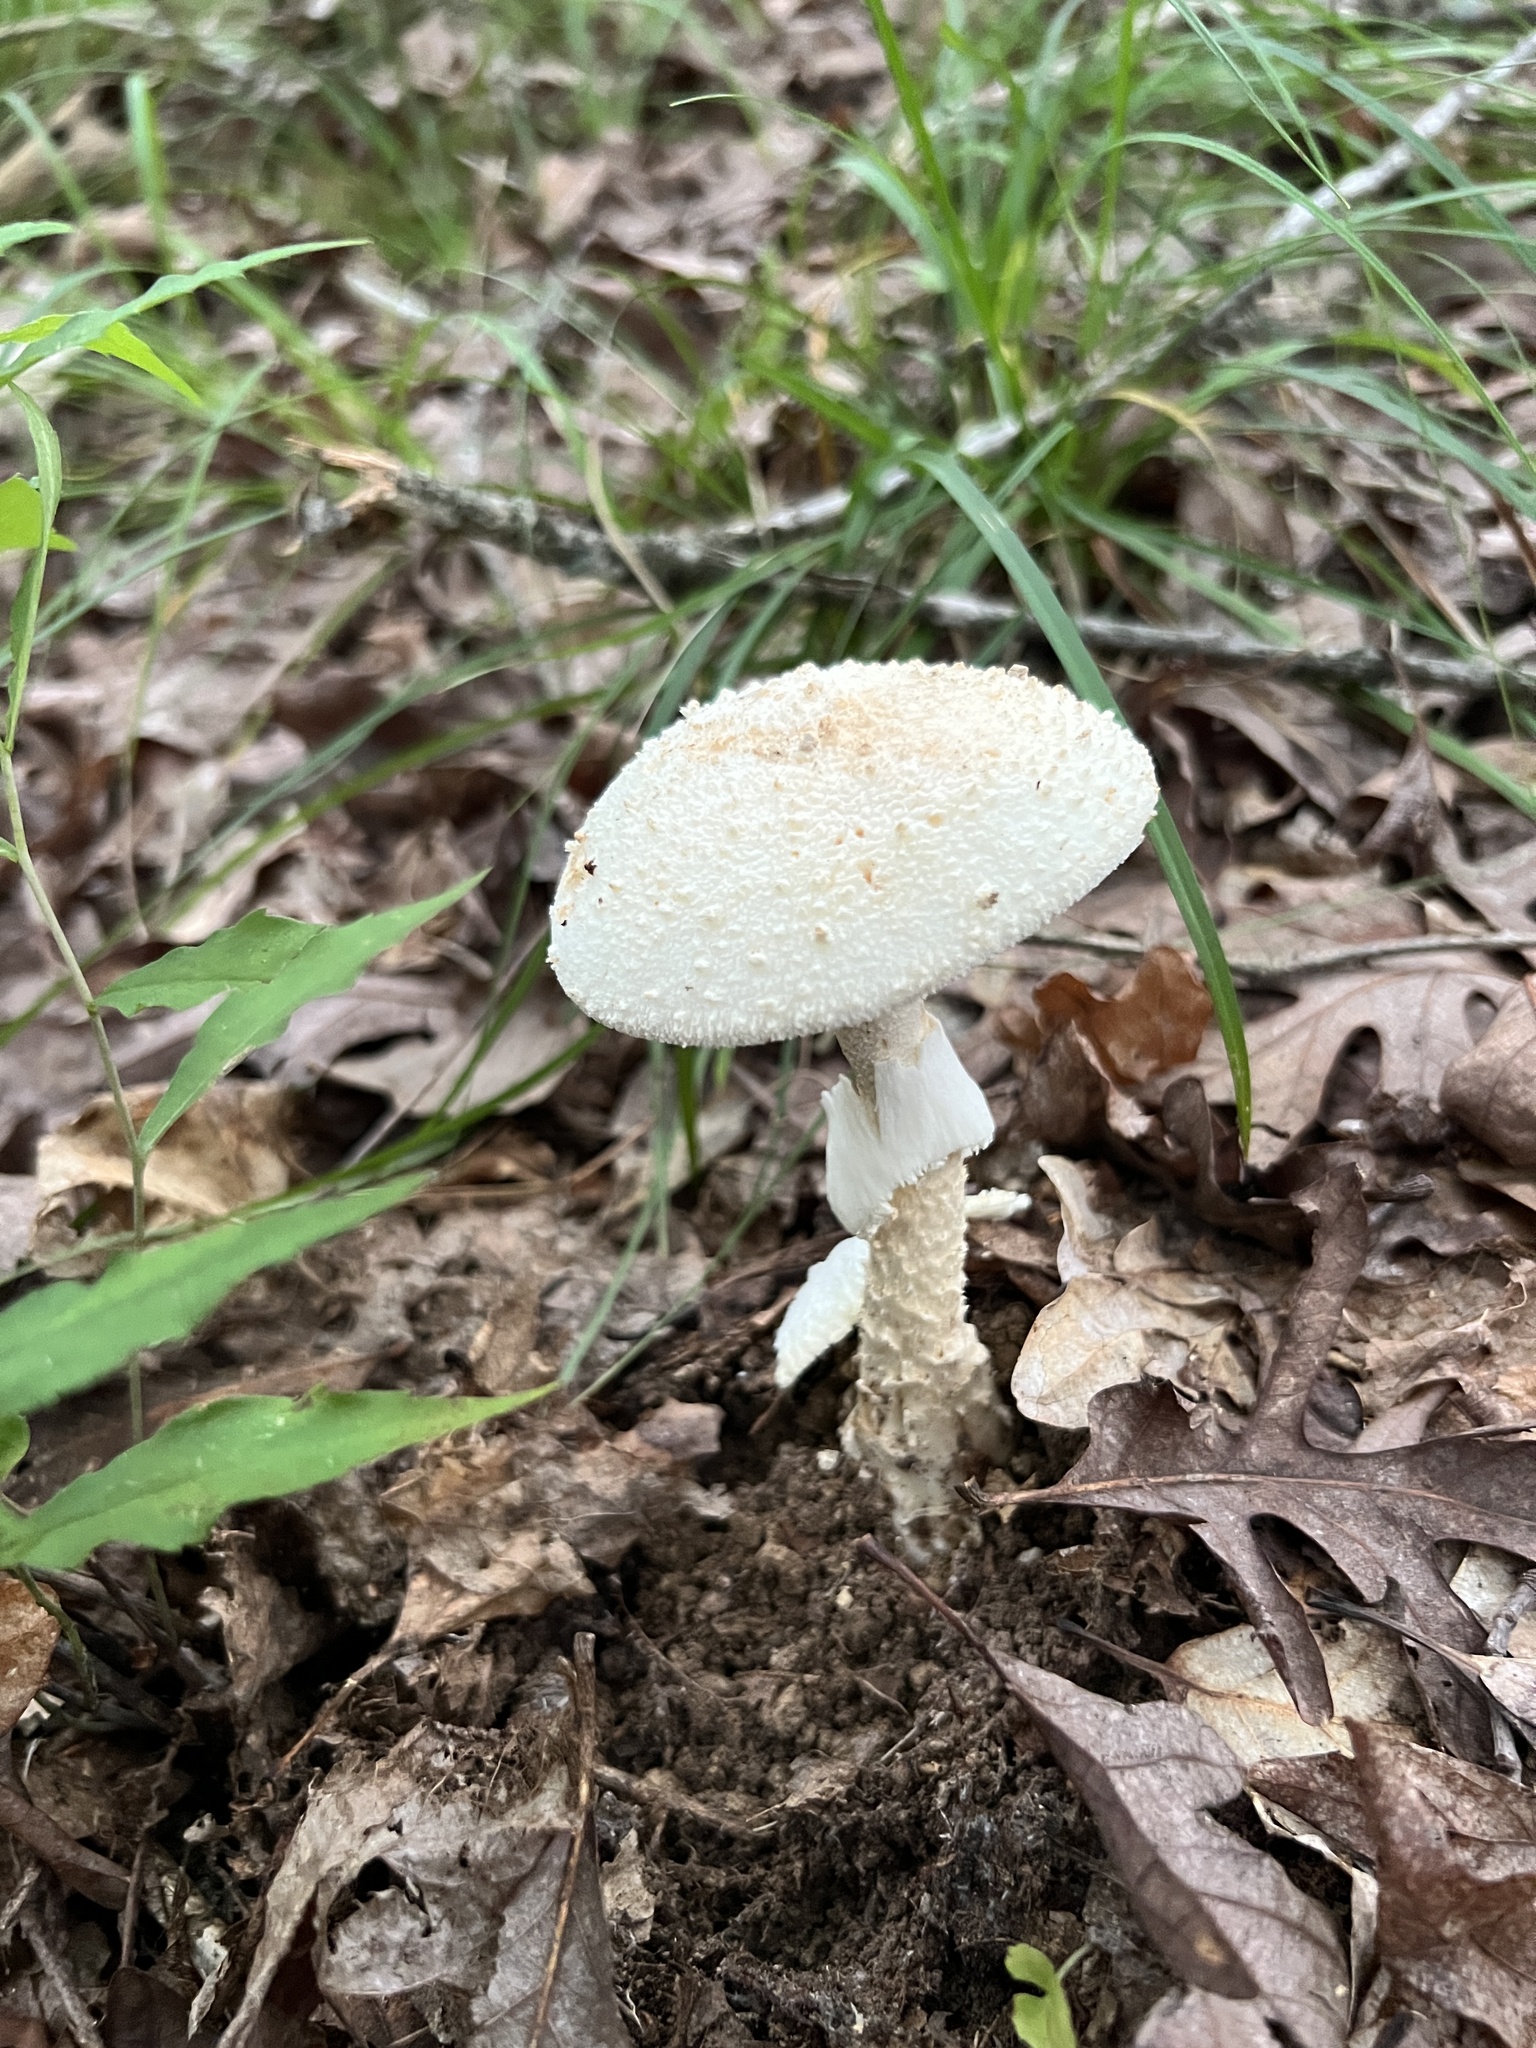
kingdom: Fungi
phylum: Basidiomycota
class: Agaricomycetes
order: Agaricales
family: Amanitaceae
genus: Amanita
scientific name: Amanita ravenelii
